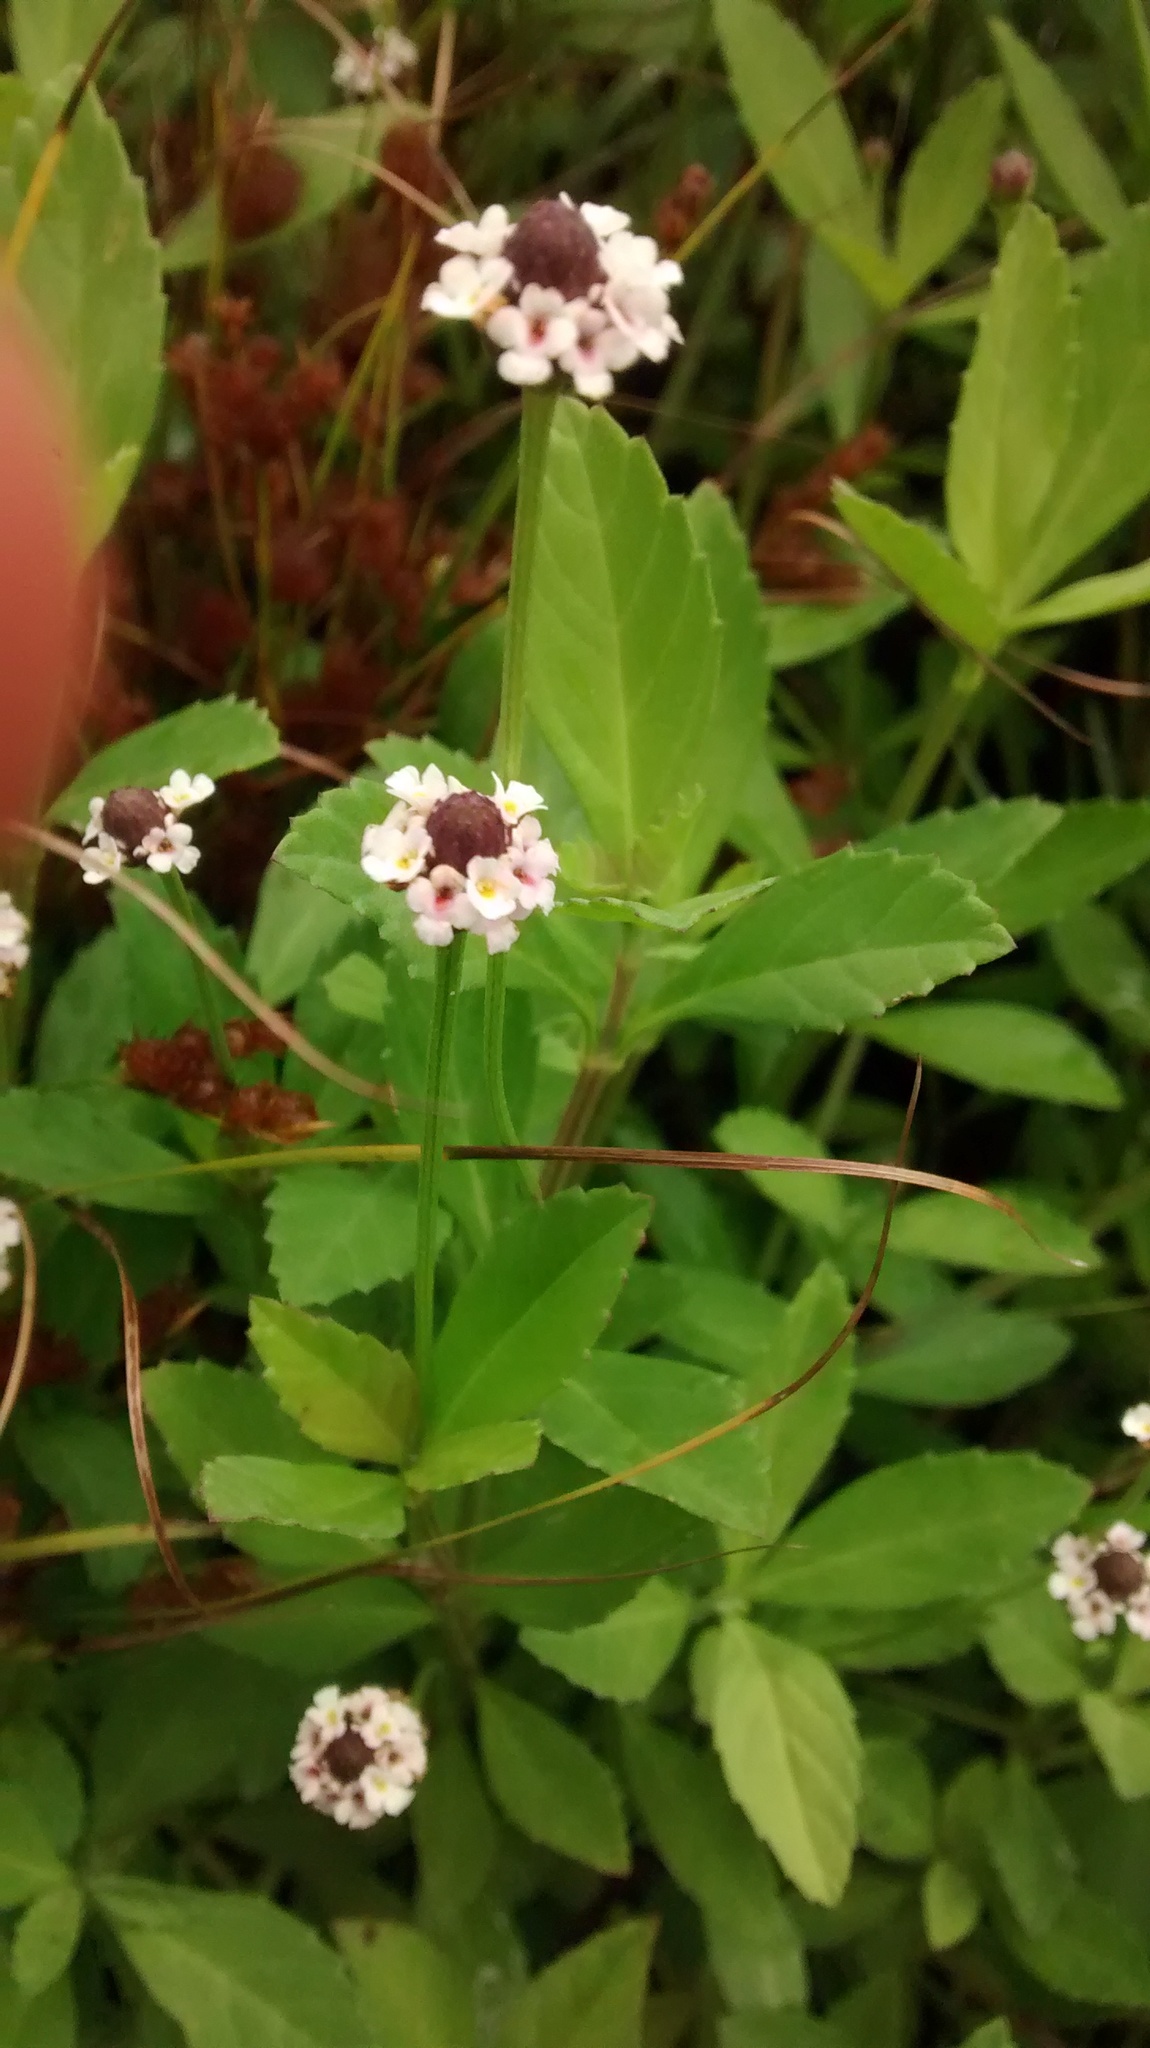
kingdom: Plantae
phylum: Tracheophyta
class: Magnoliopsida
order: Lamiales
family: Verbenaceae
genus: Phyla
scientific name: Phyla nodiflora
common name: Frogfruit
